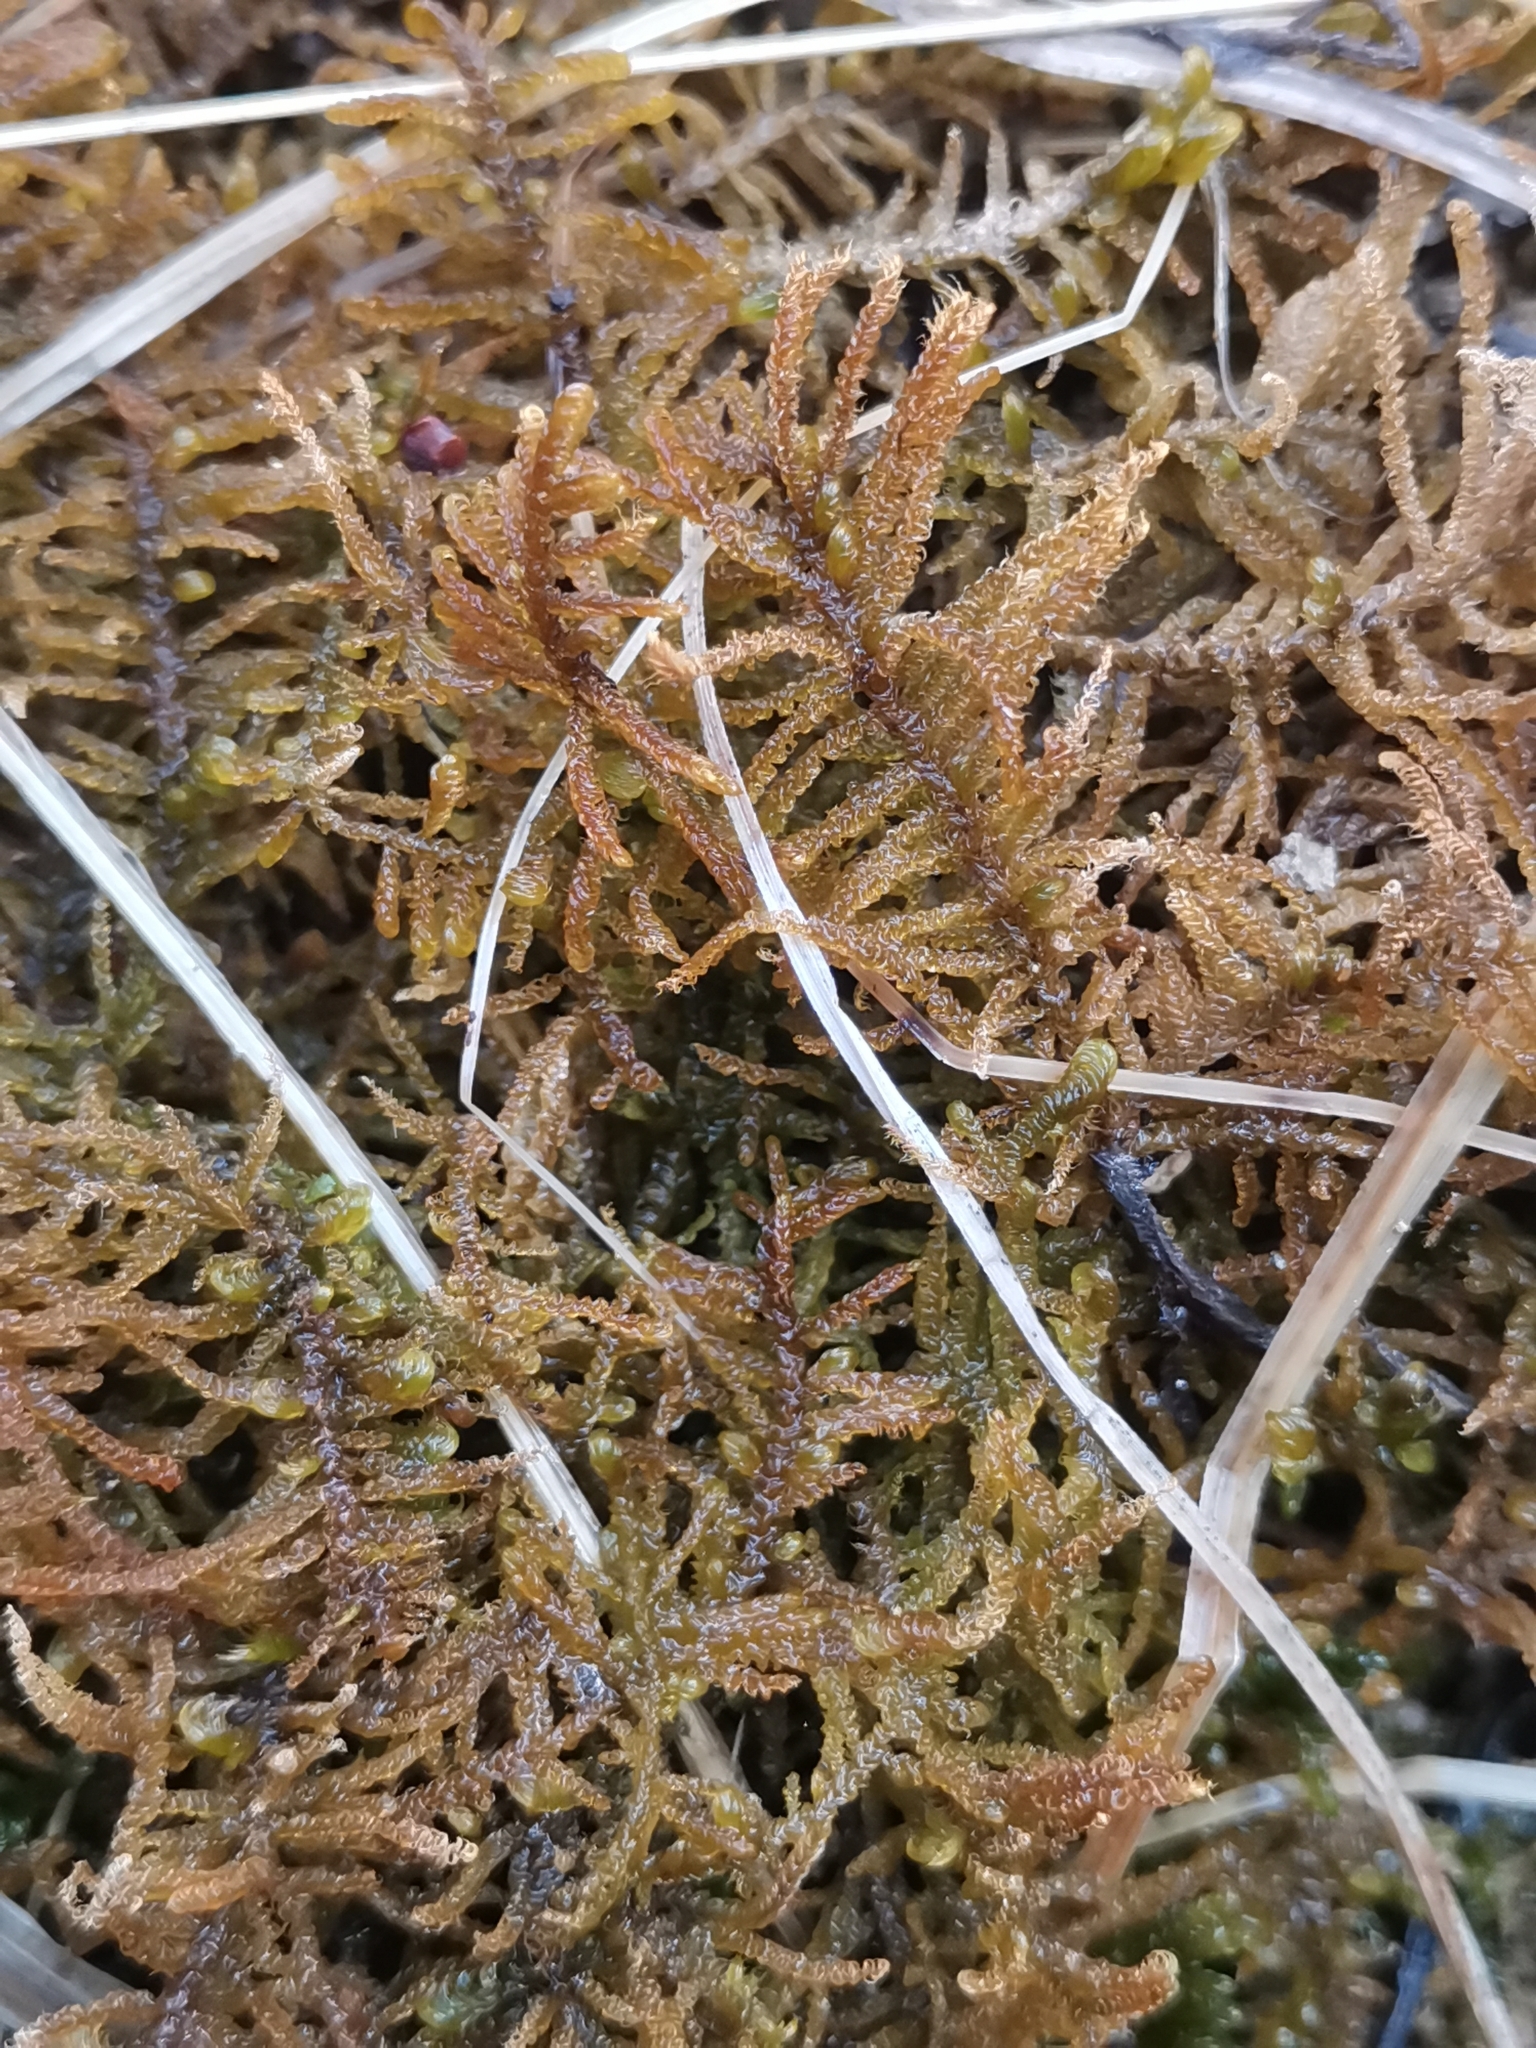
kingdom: Plantae
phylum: Bryophyta
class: Bryopsida
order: Hypnales
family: Amblystegiaceae
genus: Palustriella
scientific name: Palustriella commutata
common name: Curled hook-moss
